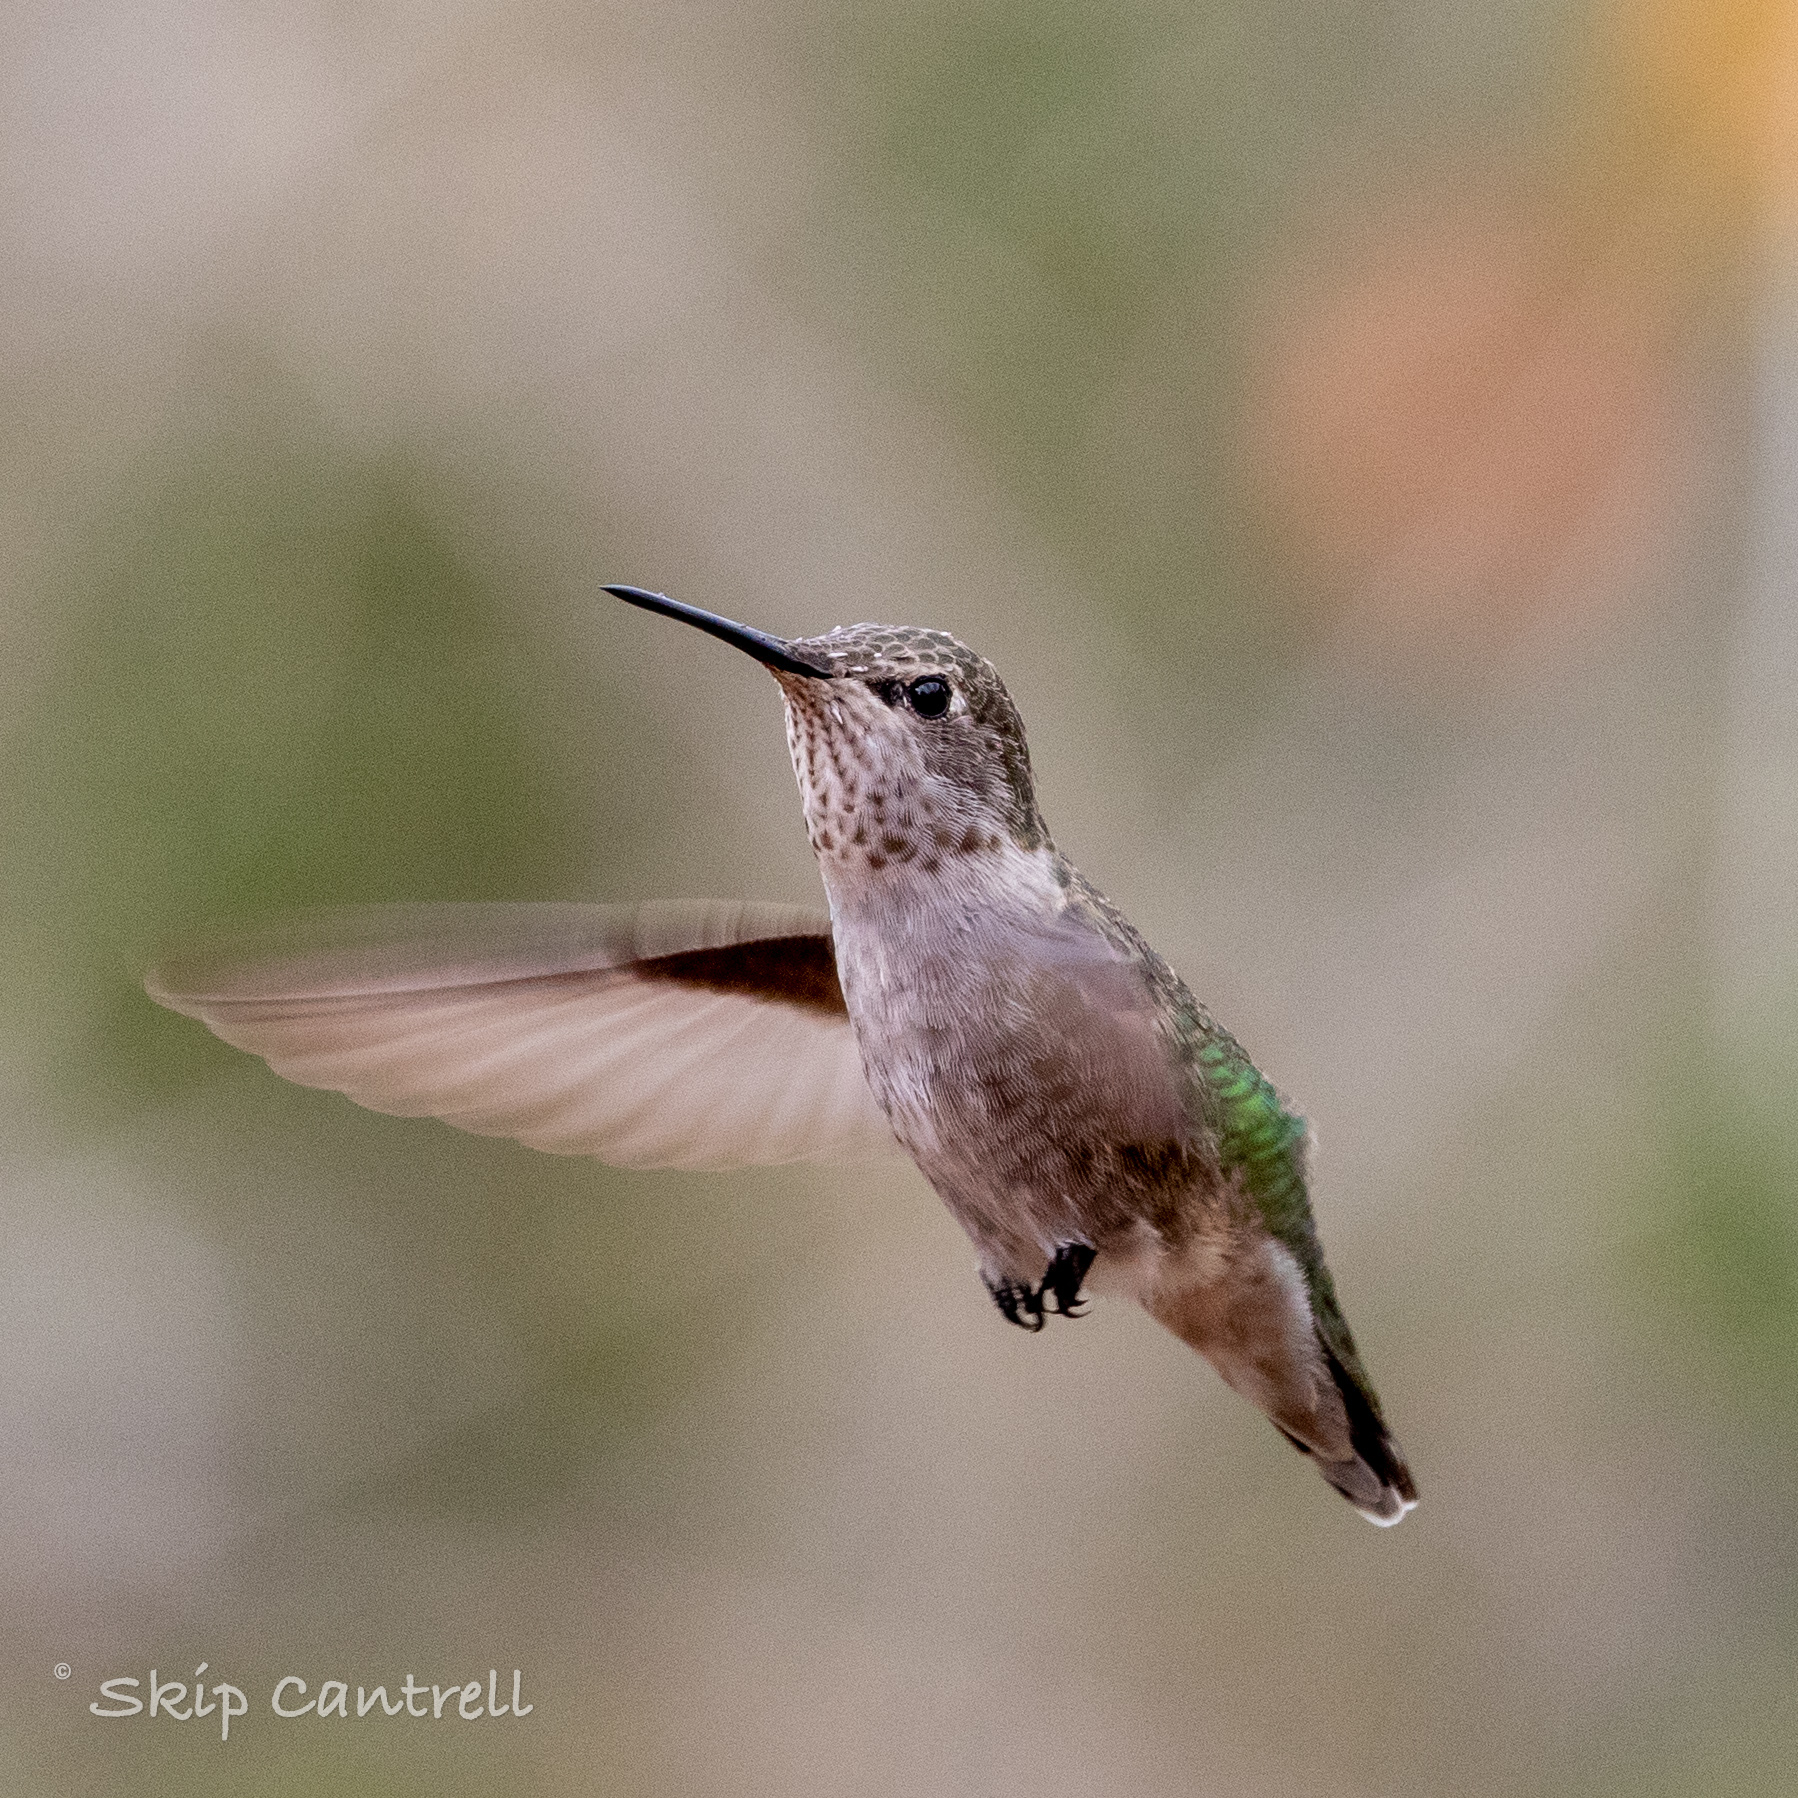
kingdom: Animalia
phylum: Chordata
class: Aves
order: Apodiformes
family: Trochilidae
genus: Calypte
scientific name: Calypte anna
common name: Anna's hummingbird
